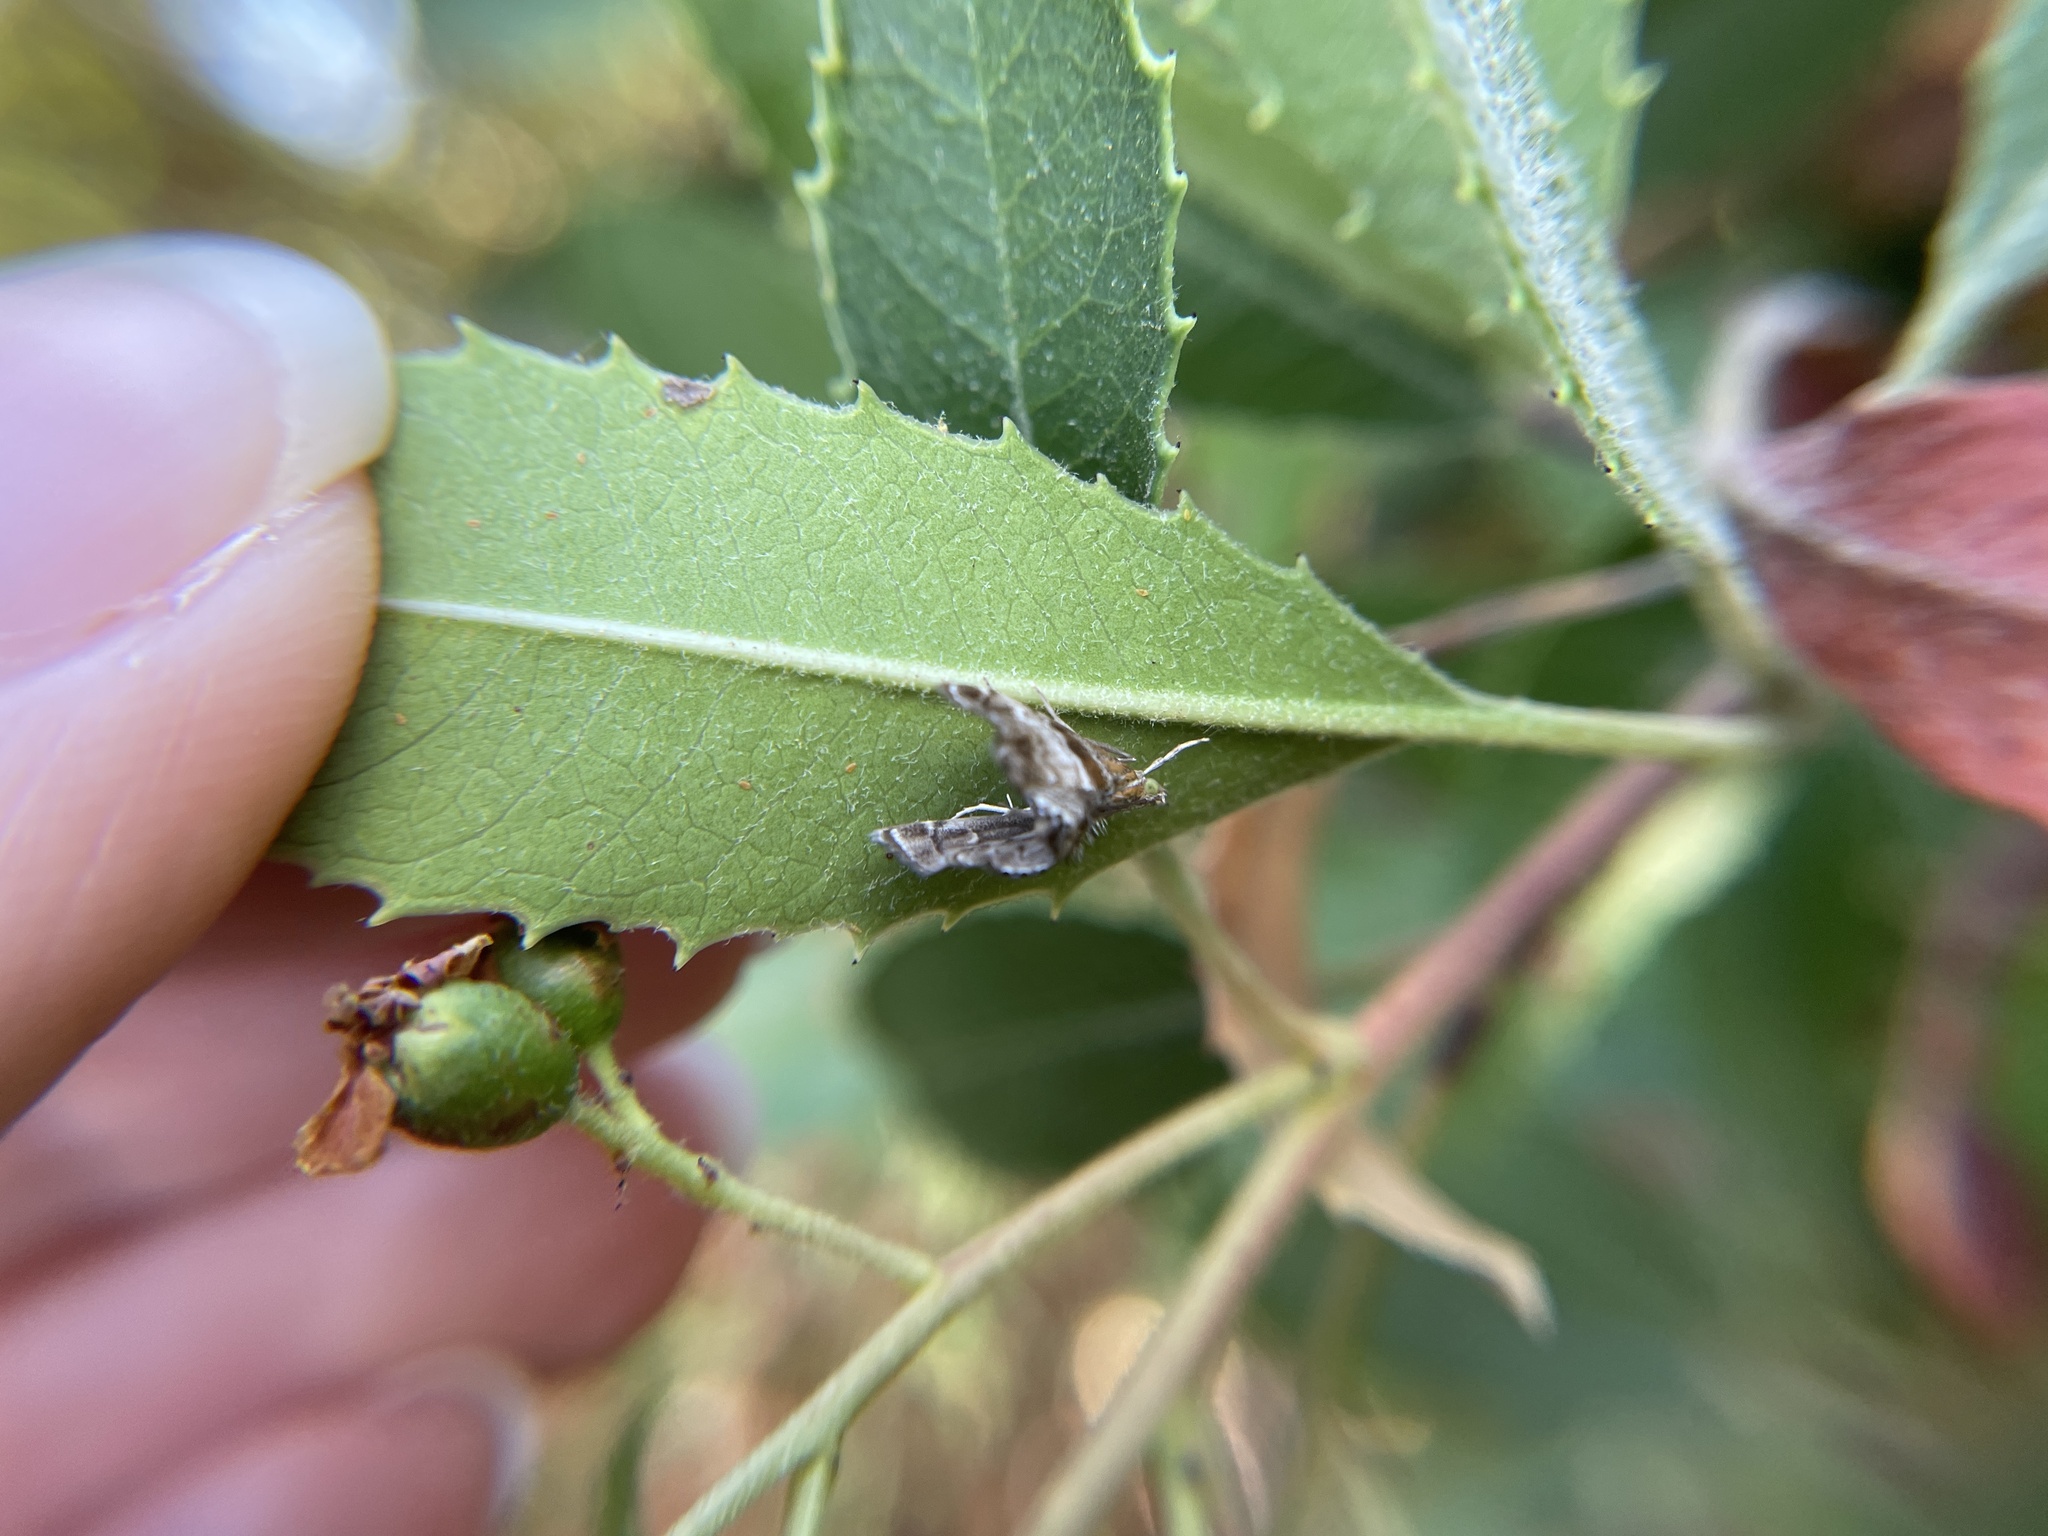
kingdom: Animalia
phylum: Arthropoda
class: Insecta
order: Lepidoptera
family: Crambidae
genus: Dicymolomia
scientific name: Dicymolomia metalliferalis
